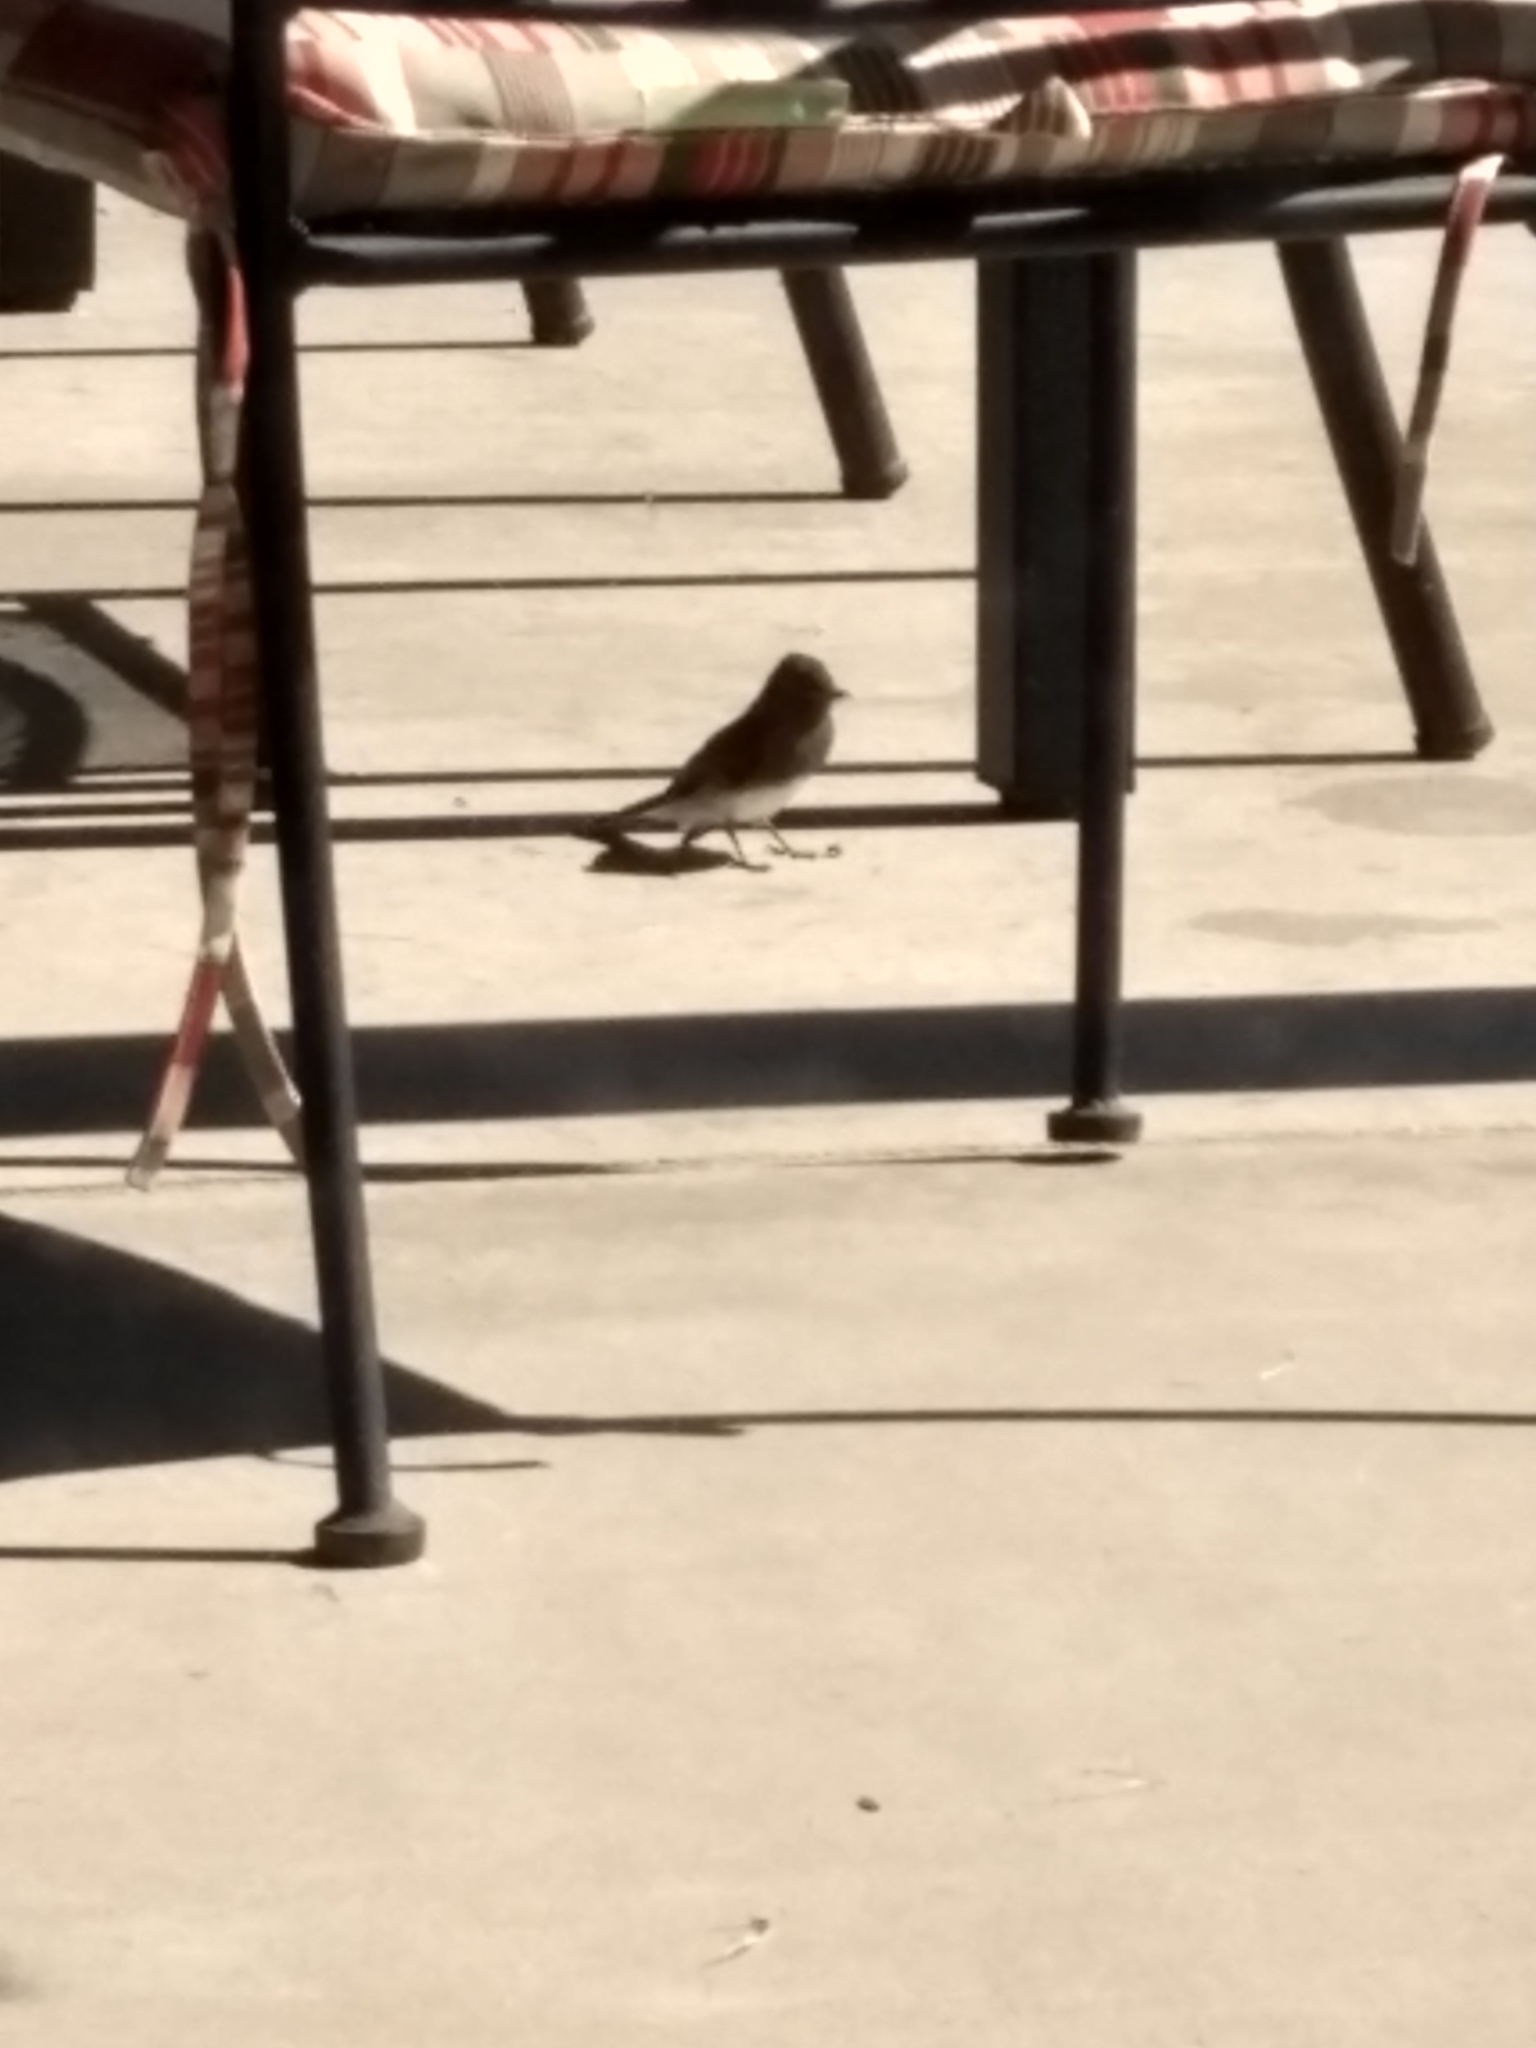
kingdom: Animalia
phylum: Chordata
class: Aves
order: Passeriformes
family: Tyrannidae
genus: Sayornis
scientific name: Sayornis nigricans
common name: Black phoebe
